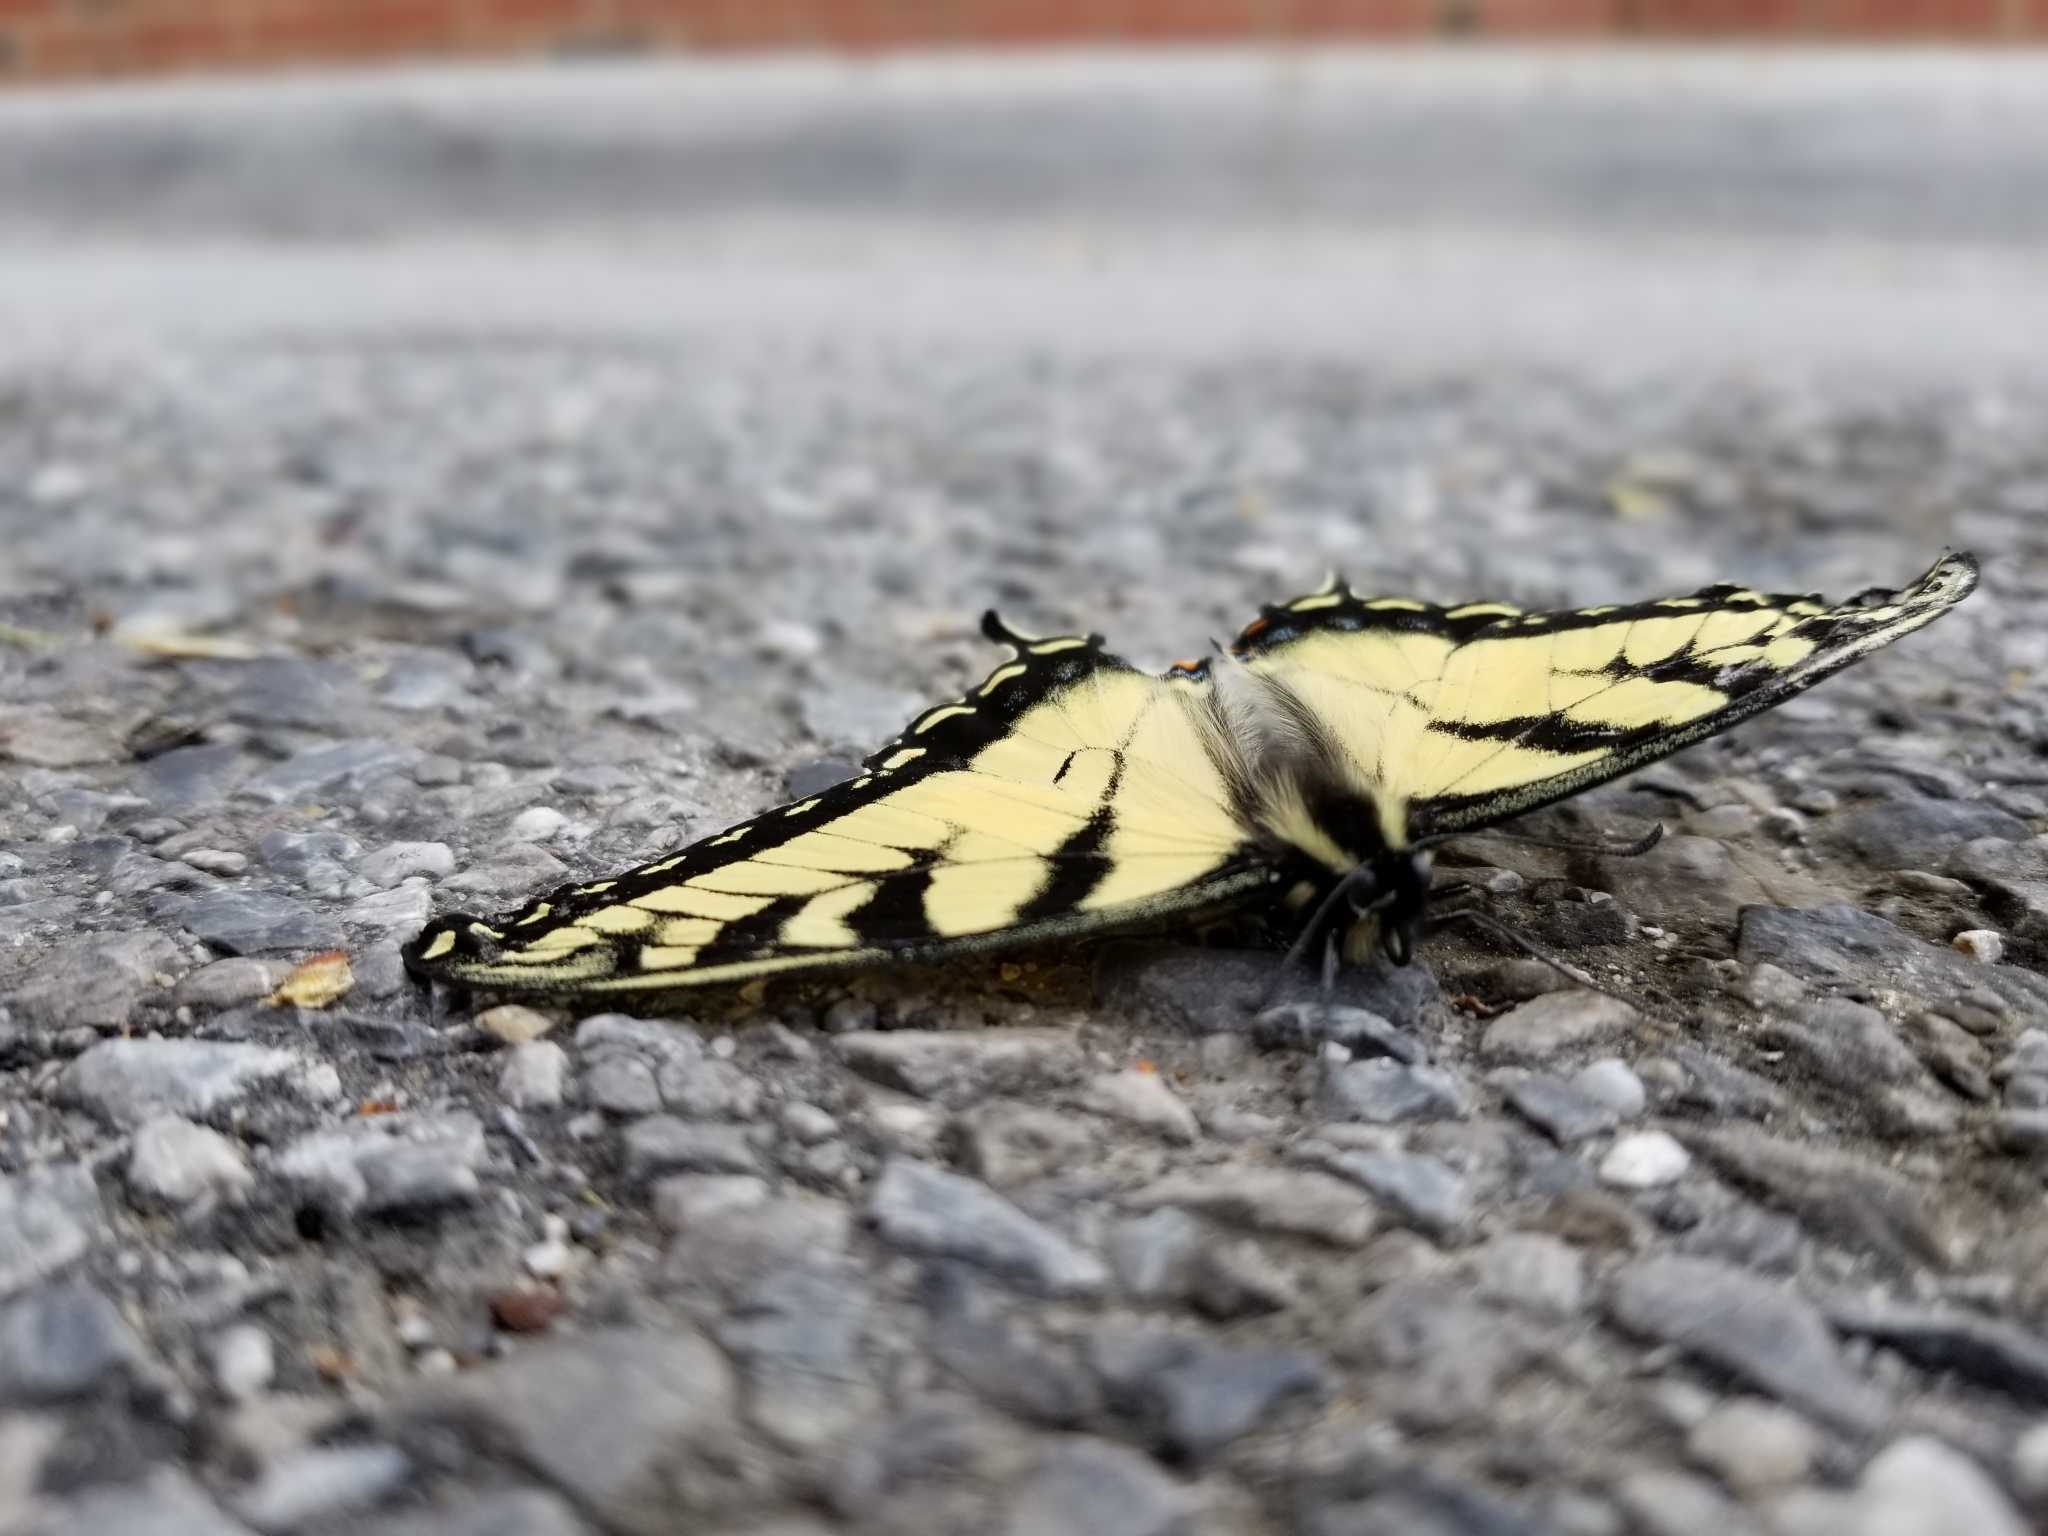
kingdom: Animalia
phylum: Arthropoda
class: Insecta
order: Lepidoptera
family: Papilionidae
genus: Papilio
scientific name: Papilio glaucus
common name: Tiger swallowtail
